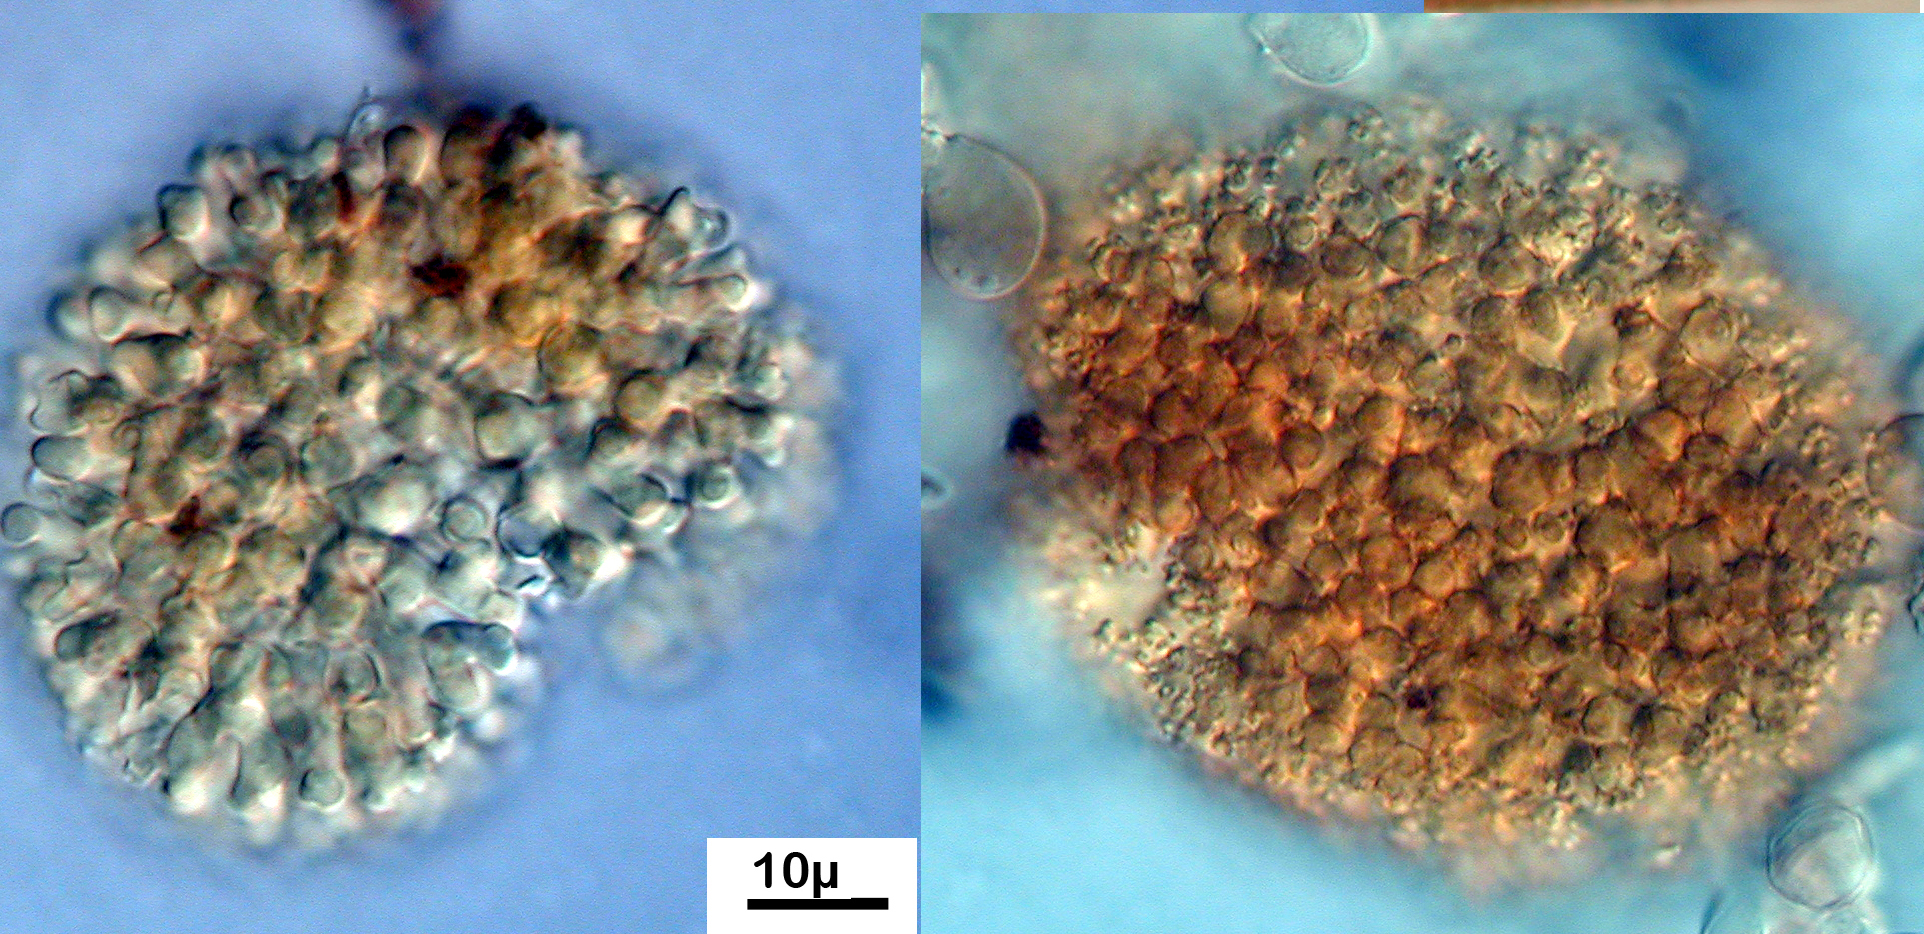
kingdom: Fungi
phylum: Ascomycota
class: Sordariomycetes
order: Pisorisporiales
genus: Brocchiosphaera
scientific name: Brocchiosphaera brocchiata
